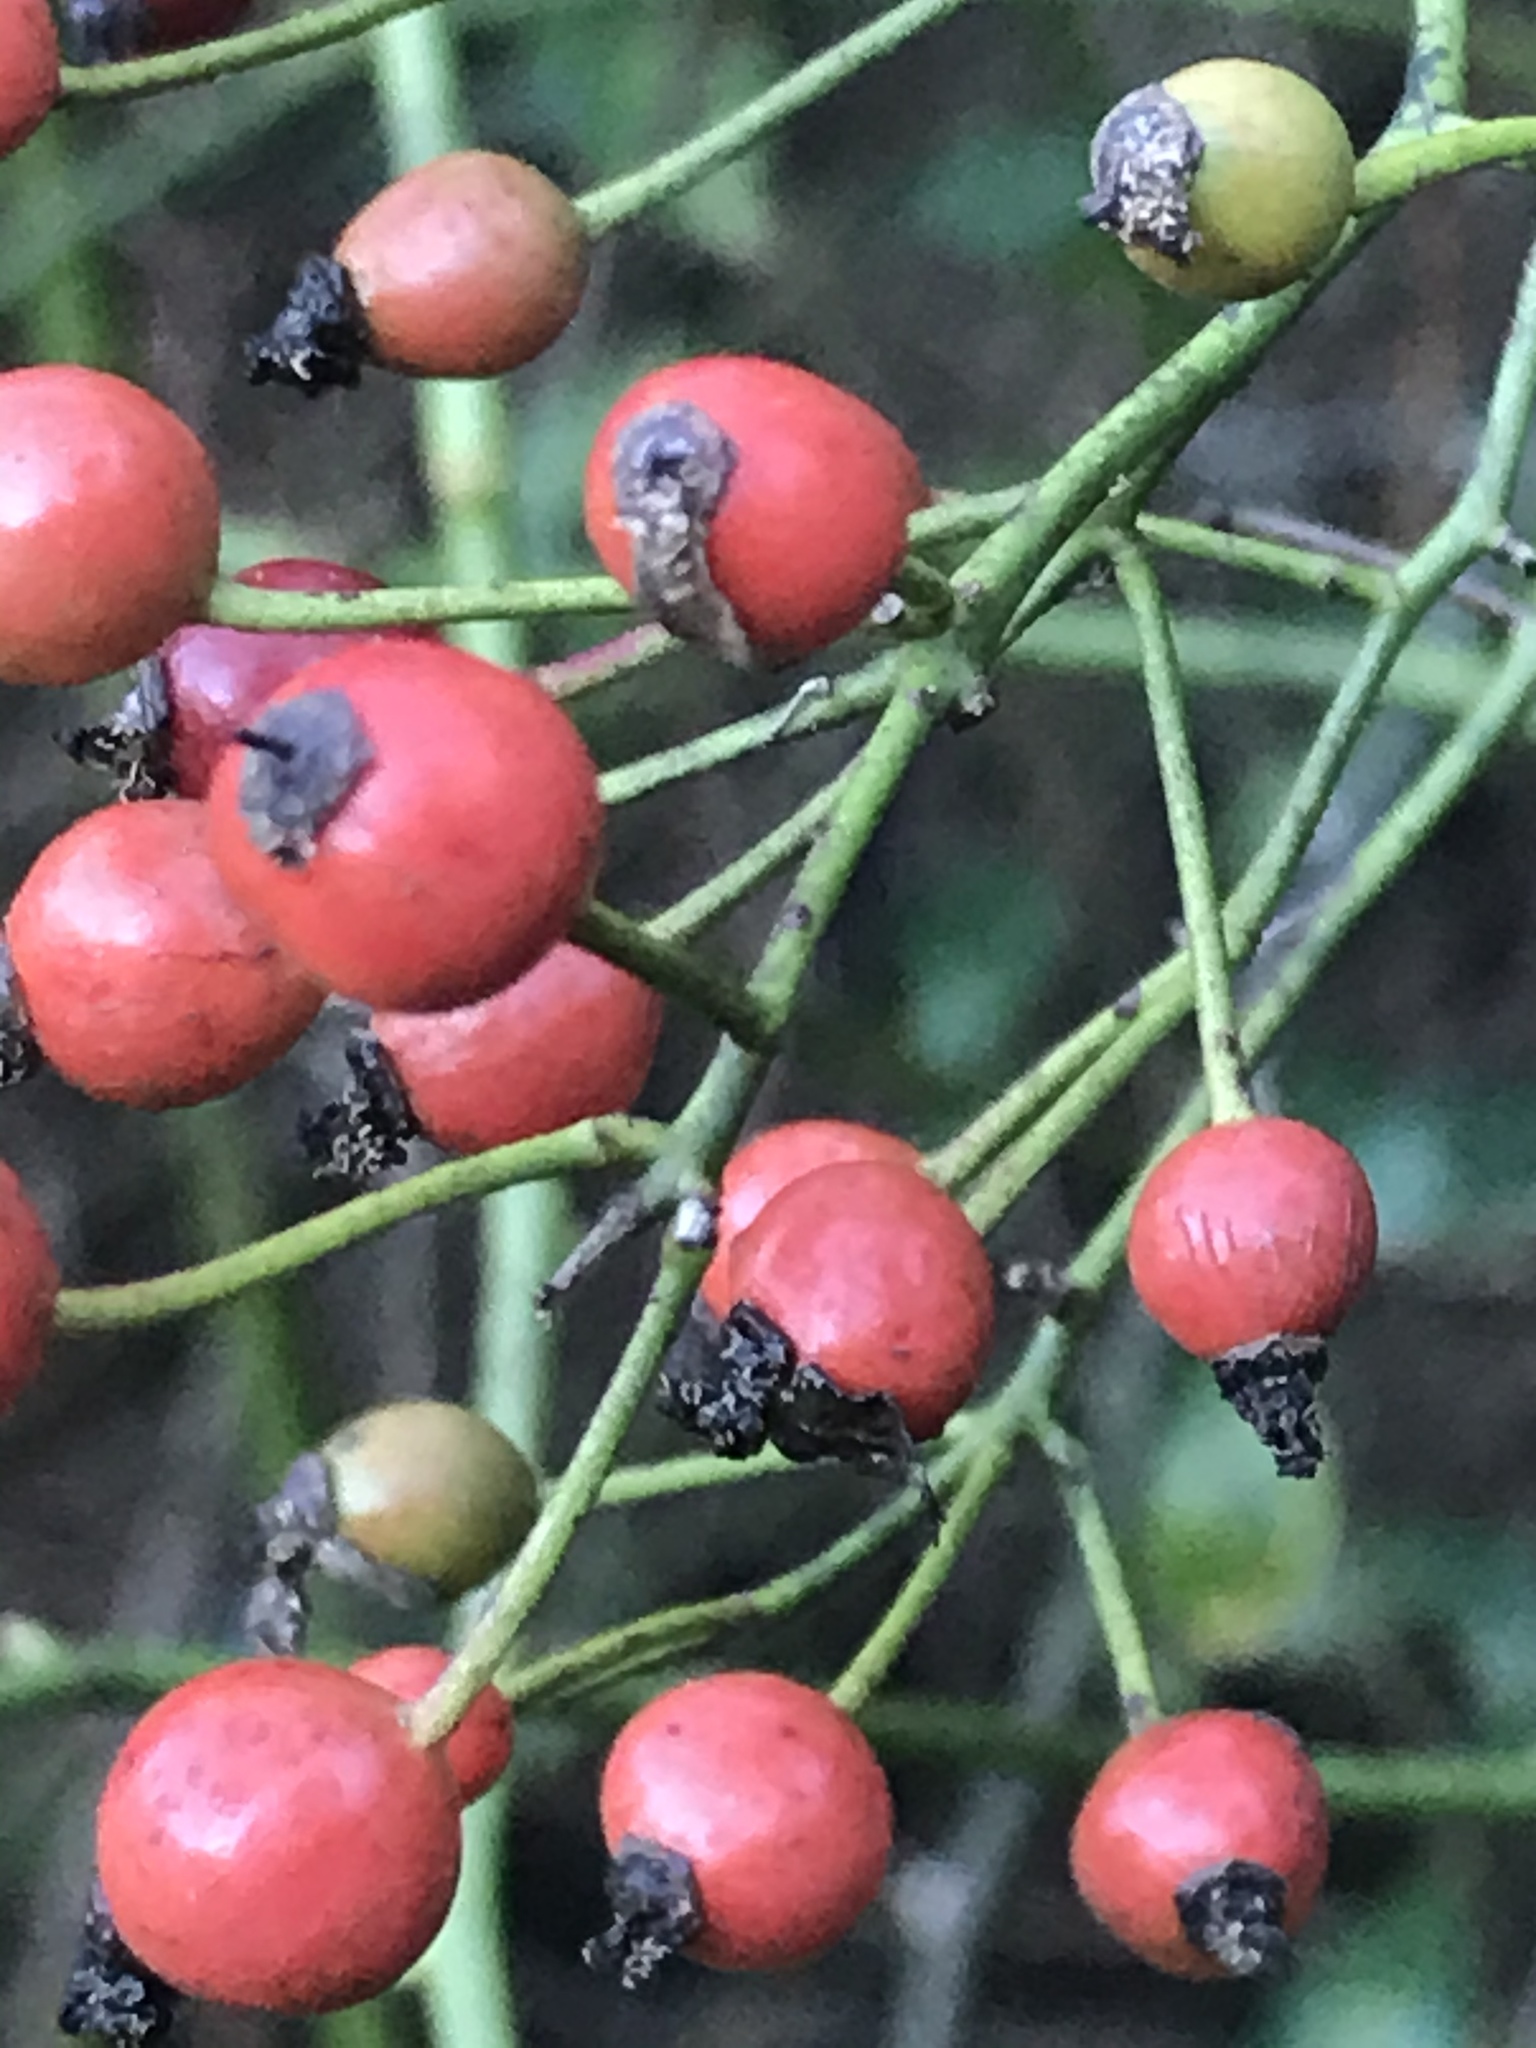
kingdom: Plantae
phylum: Tracheophyta
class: Magnoliopsida
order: Rosales
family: Rosaceae
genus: Rosa
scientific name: Rosa multiflora
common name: Multiflora rose
